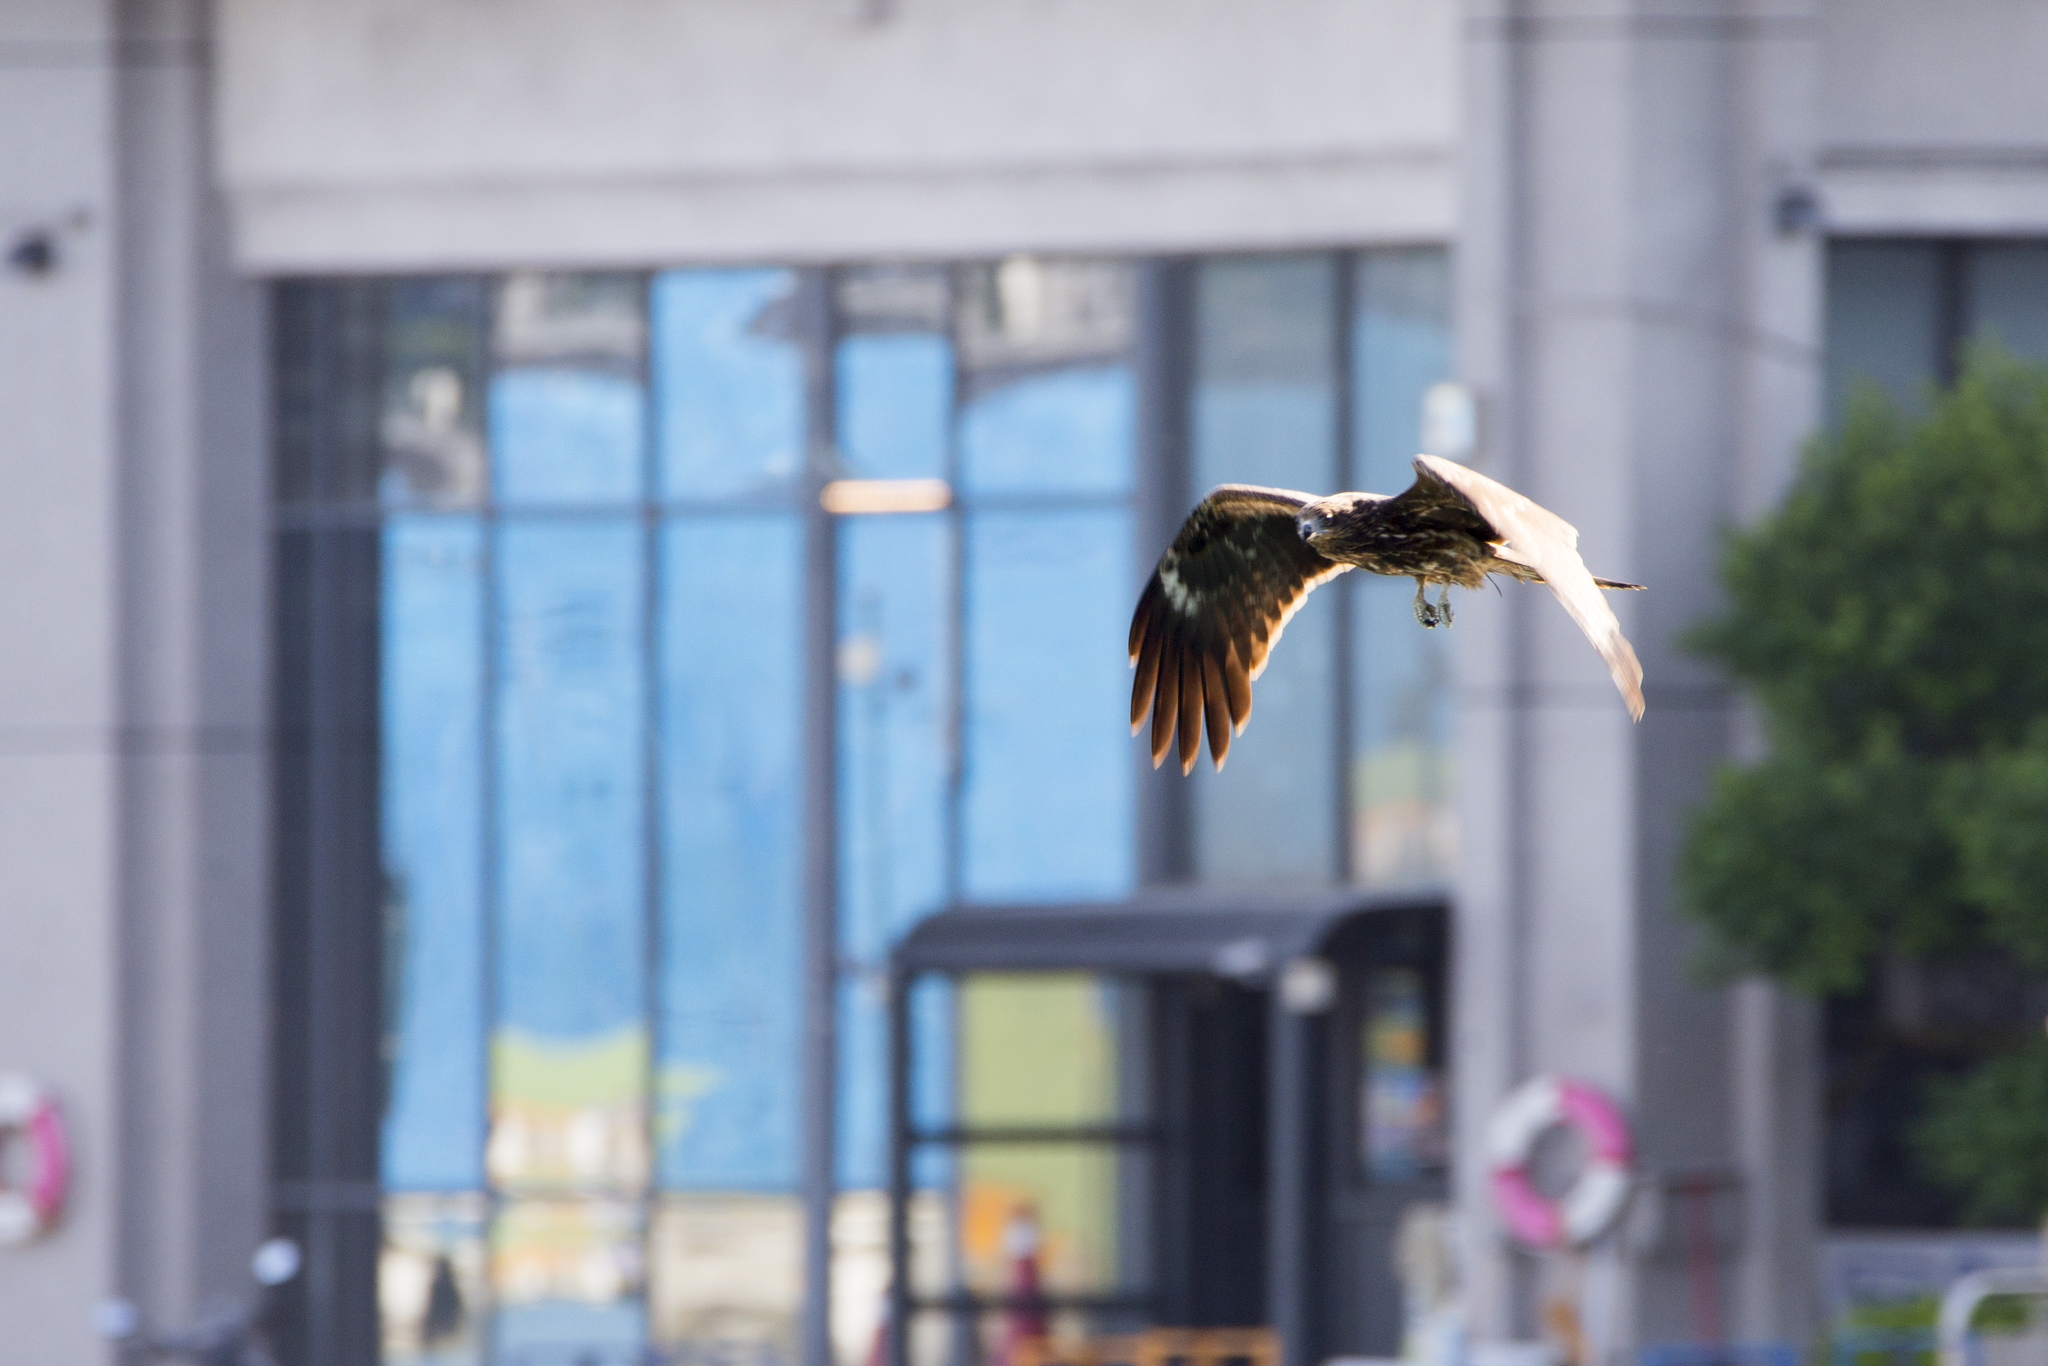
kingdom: Animalia
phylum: Chordata
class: Aves
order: Accipitriformes
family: Accipitridae
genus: Milvus
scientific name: Milvus migrans
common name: Black kite
